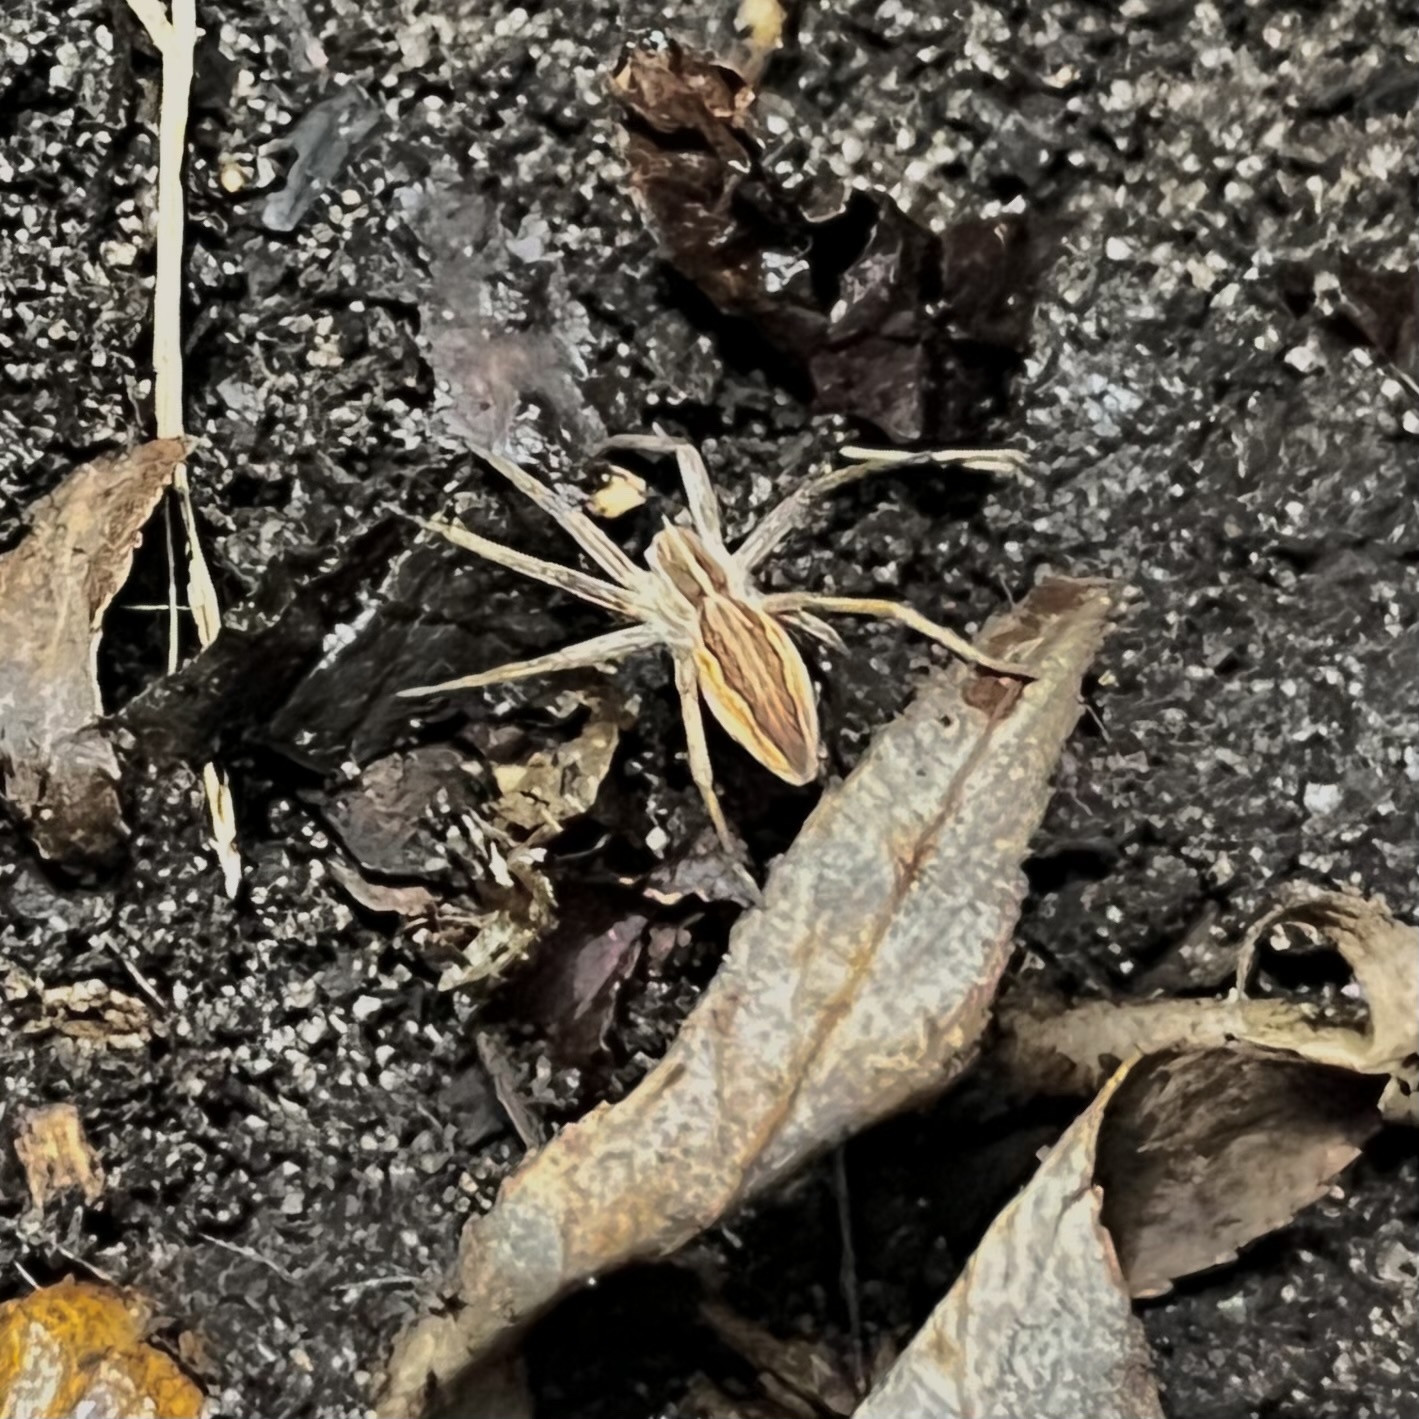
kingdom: Animalia
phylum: Arthropoda
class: Arachnida
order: Araneae
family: Pisauridae
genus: Pisaura
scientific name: Pisaura mirabilis
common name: Tent spider
